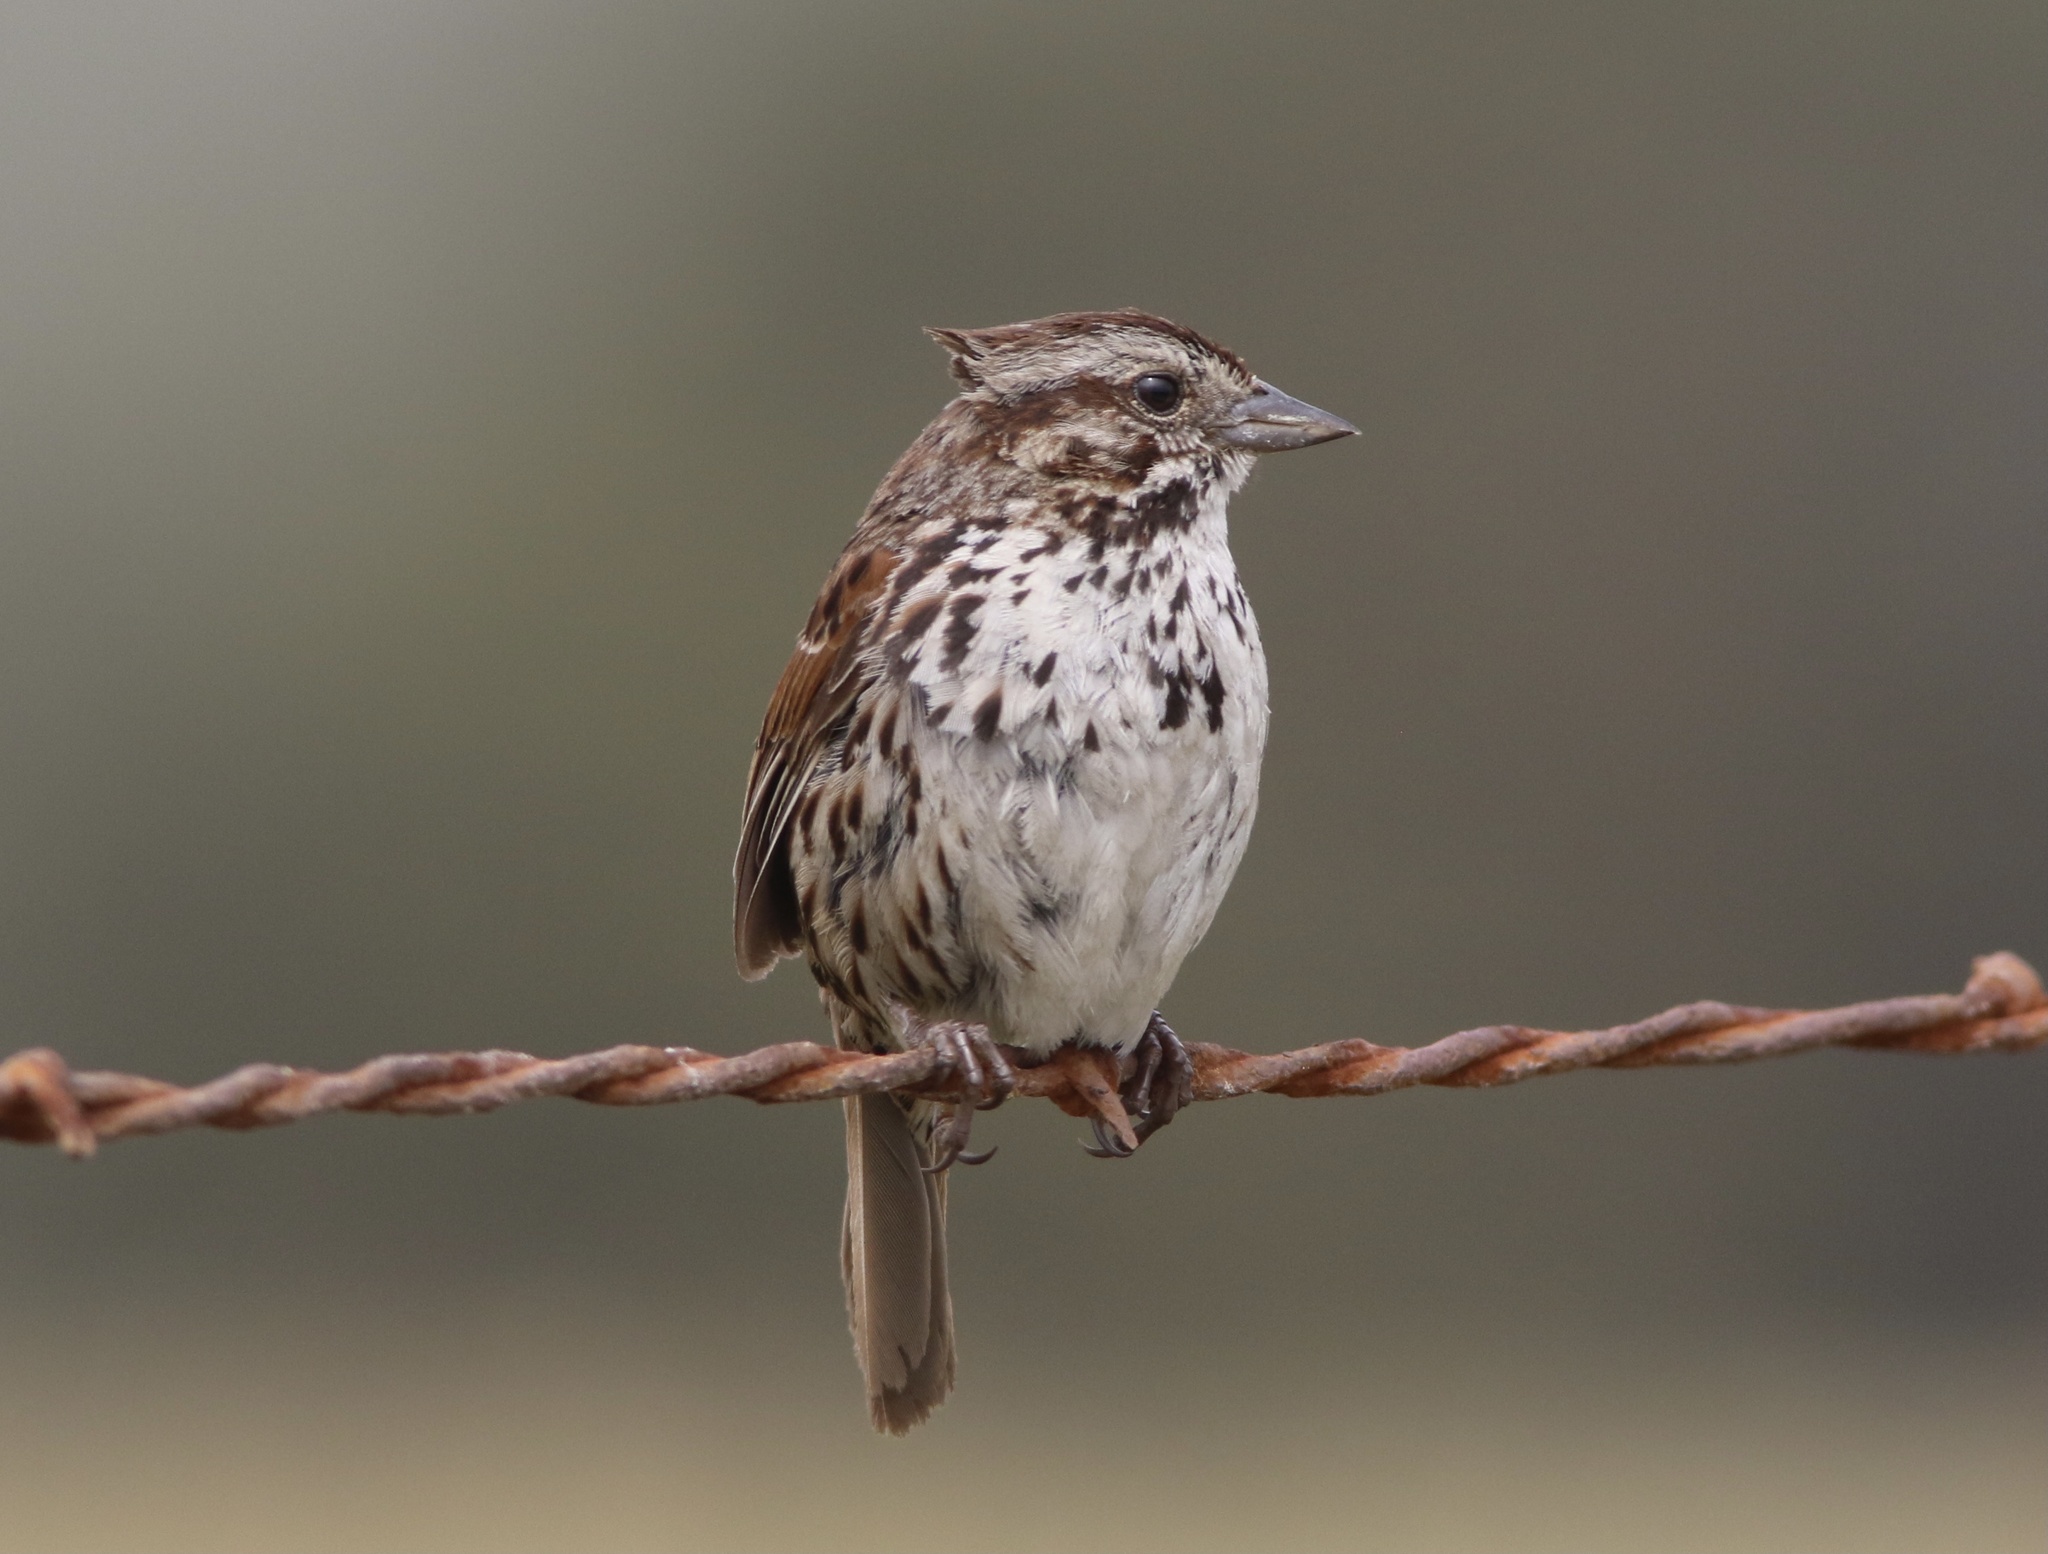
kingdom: Animalia
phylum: Chordata
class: Aves
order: Passeriformes
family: Passerellidae
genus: Melospiza
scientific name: Melospiza melodia
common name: Song sparrow
